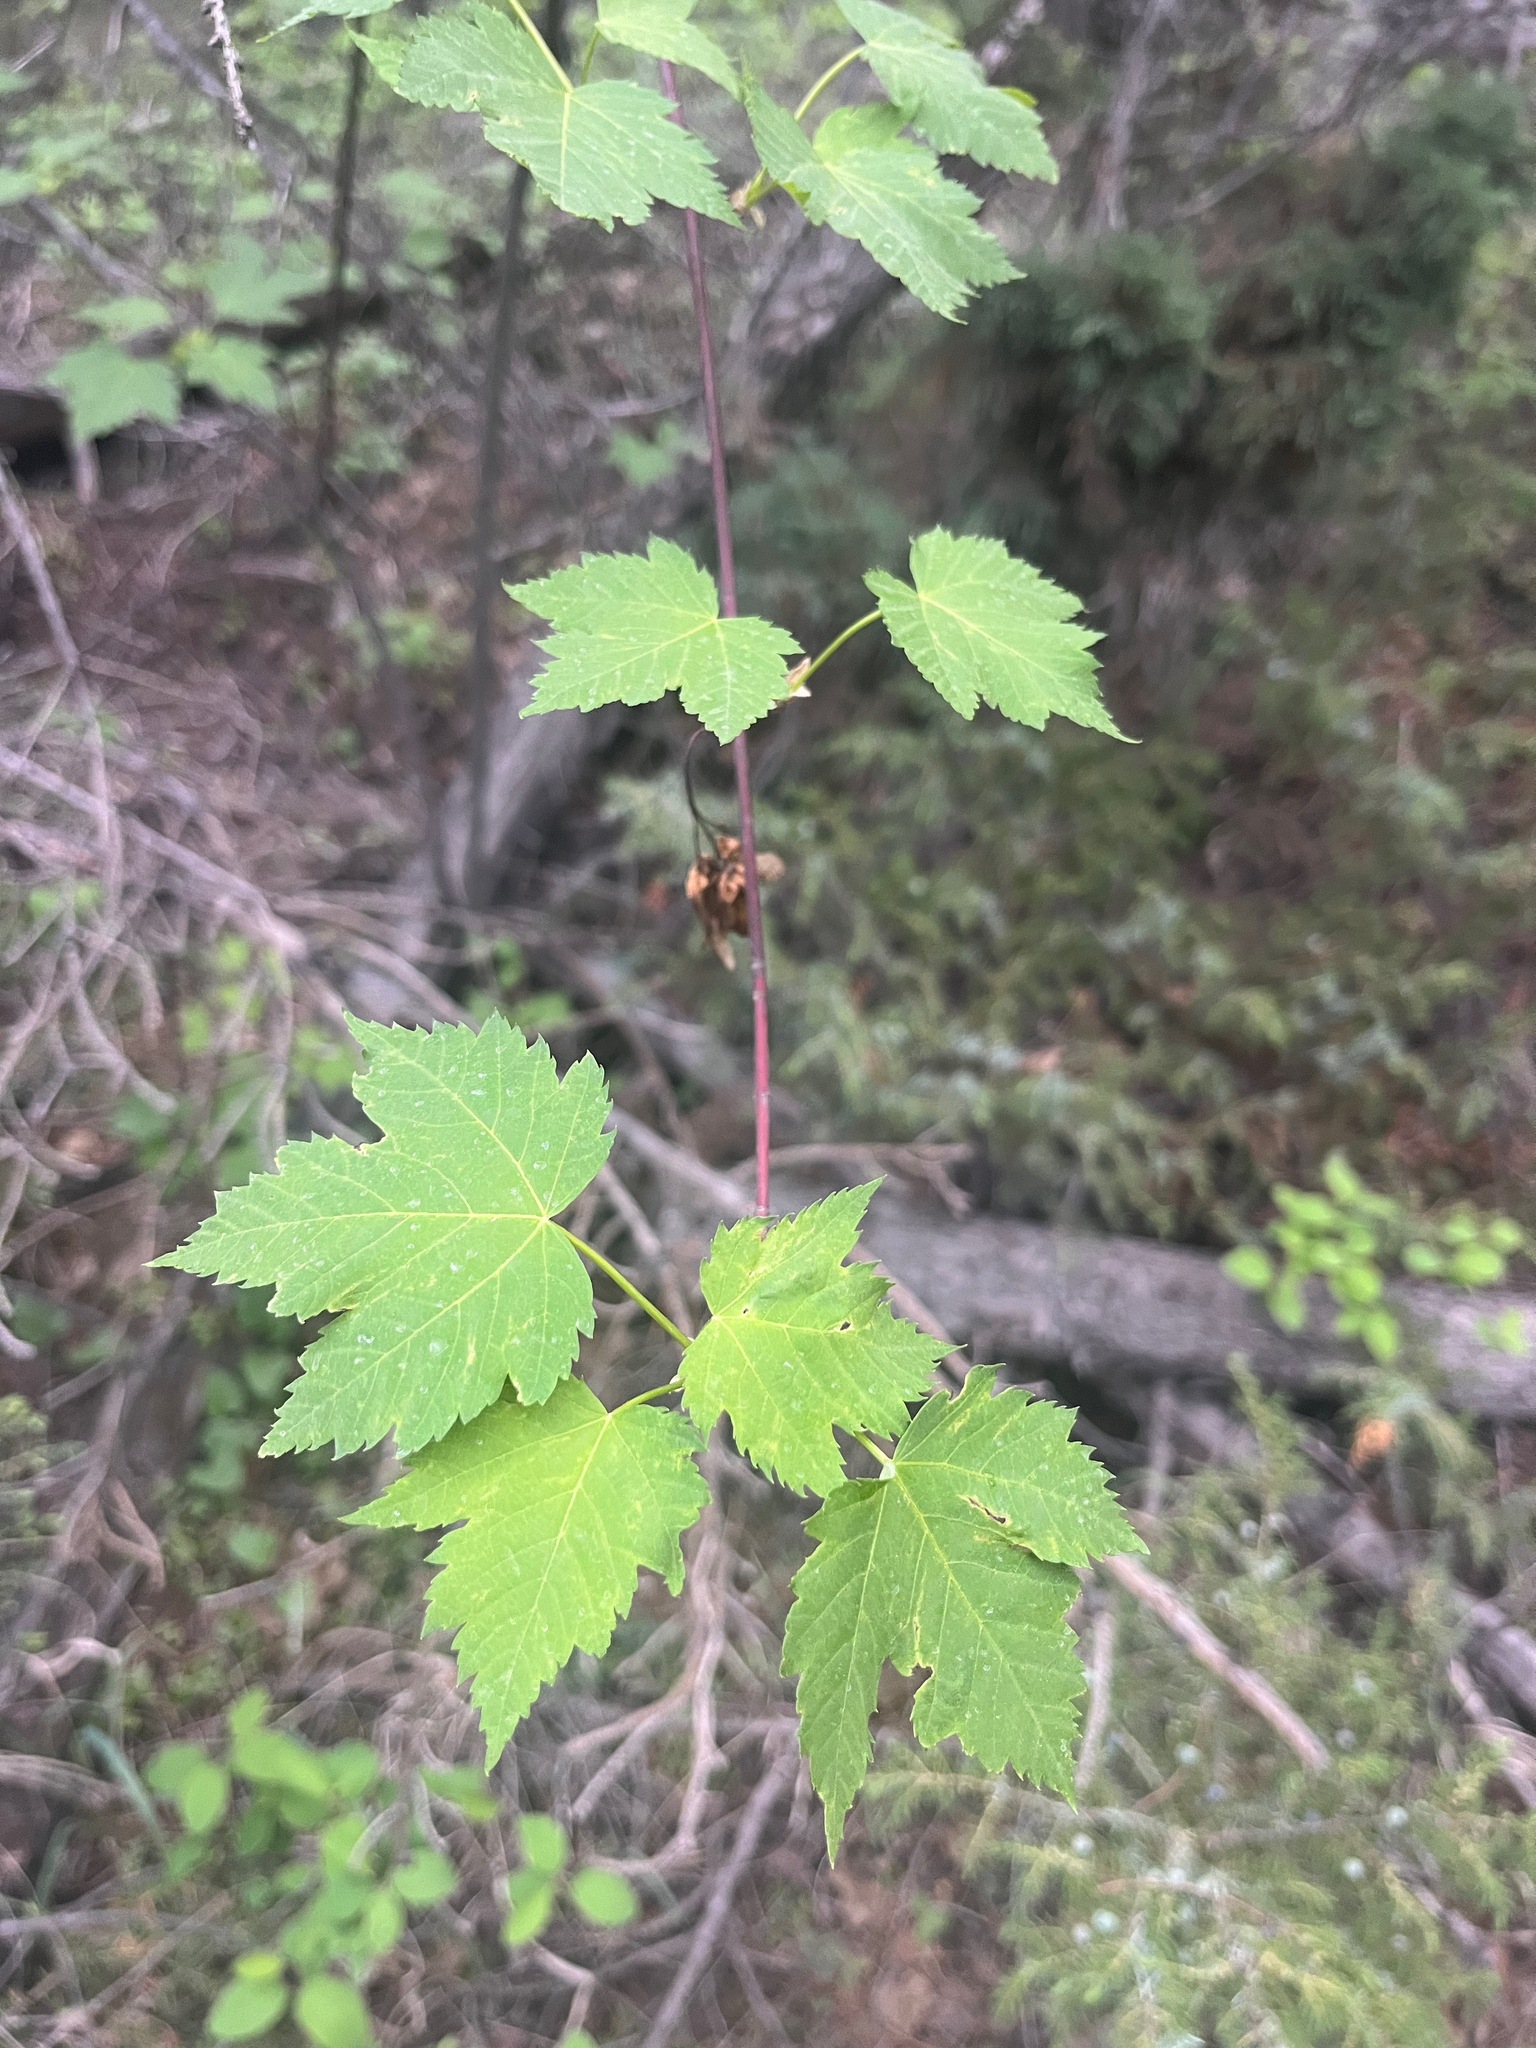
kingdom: Plantae
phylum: Tracheophyta
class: Magnoliopsida
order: Sapindales
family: Sapindaceae
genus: Acer
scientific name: Acer glabrum
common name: Rocky mountain maple
